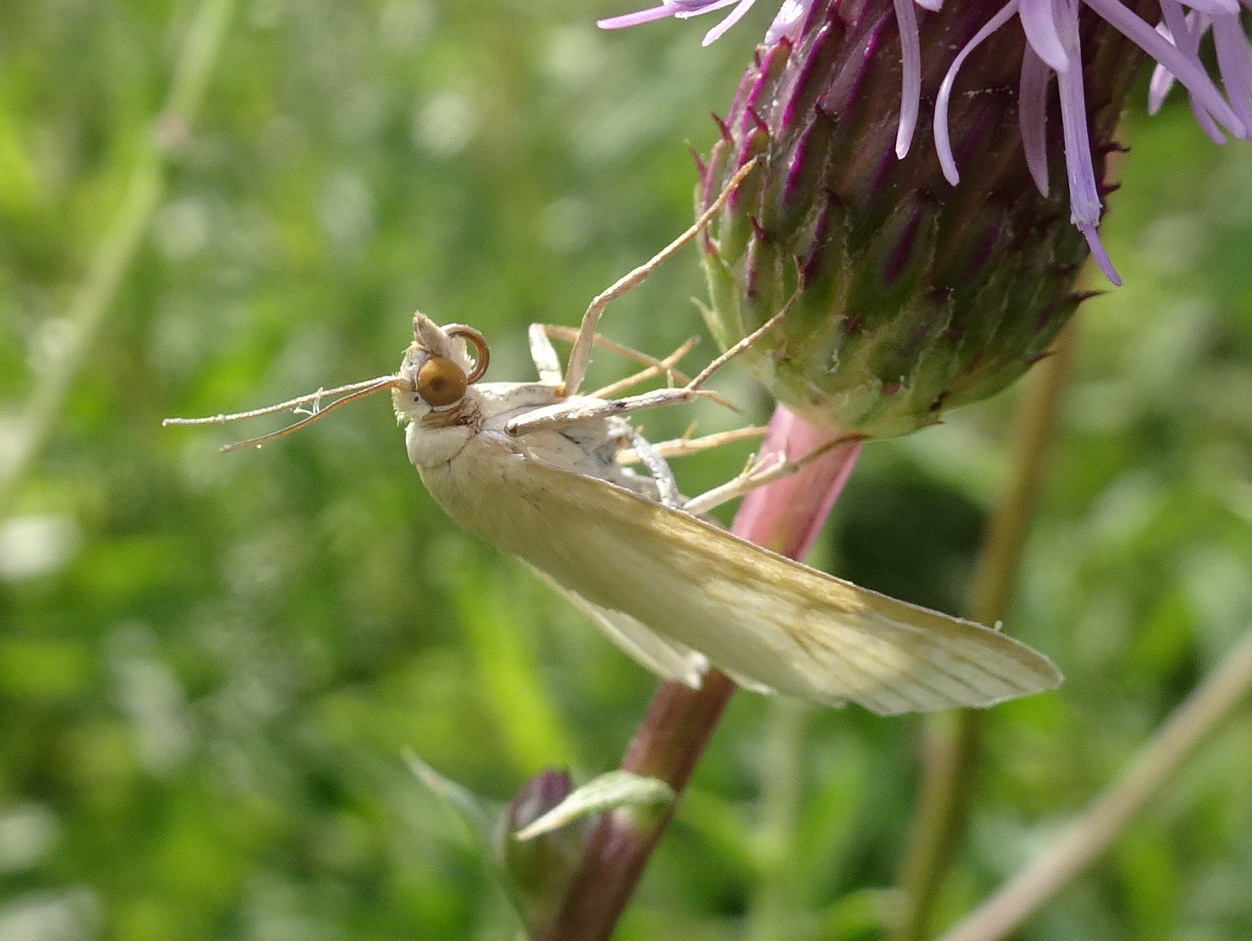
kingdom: Animalia
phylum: Arthropoda
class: Insecta
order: Lepidoptera
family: Crambidae
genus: Sitochroa
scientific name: Sitochroa palealis
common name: Greenish-yellow sitochroa moth
